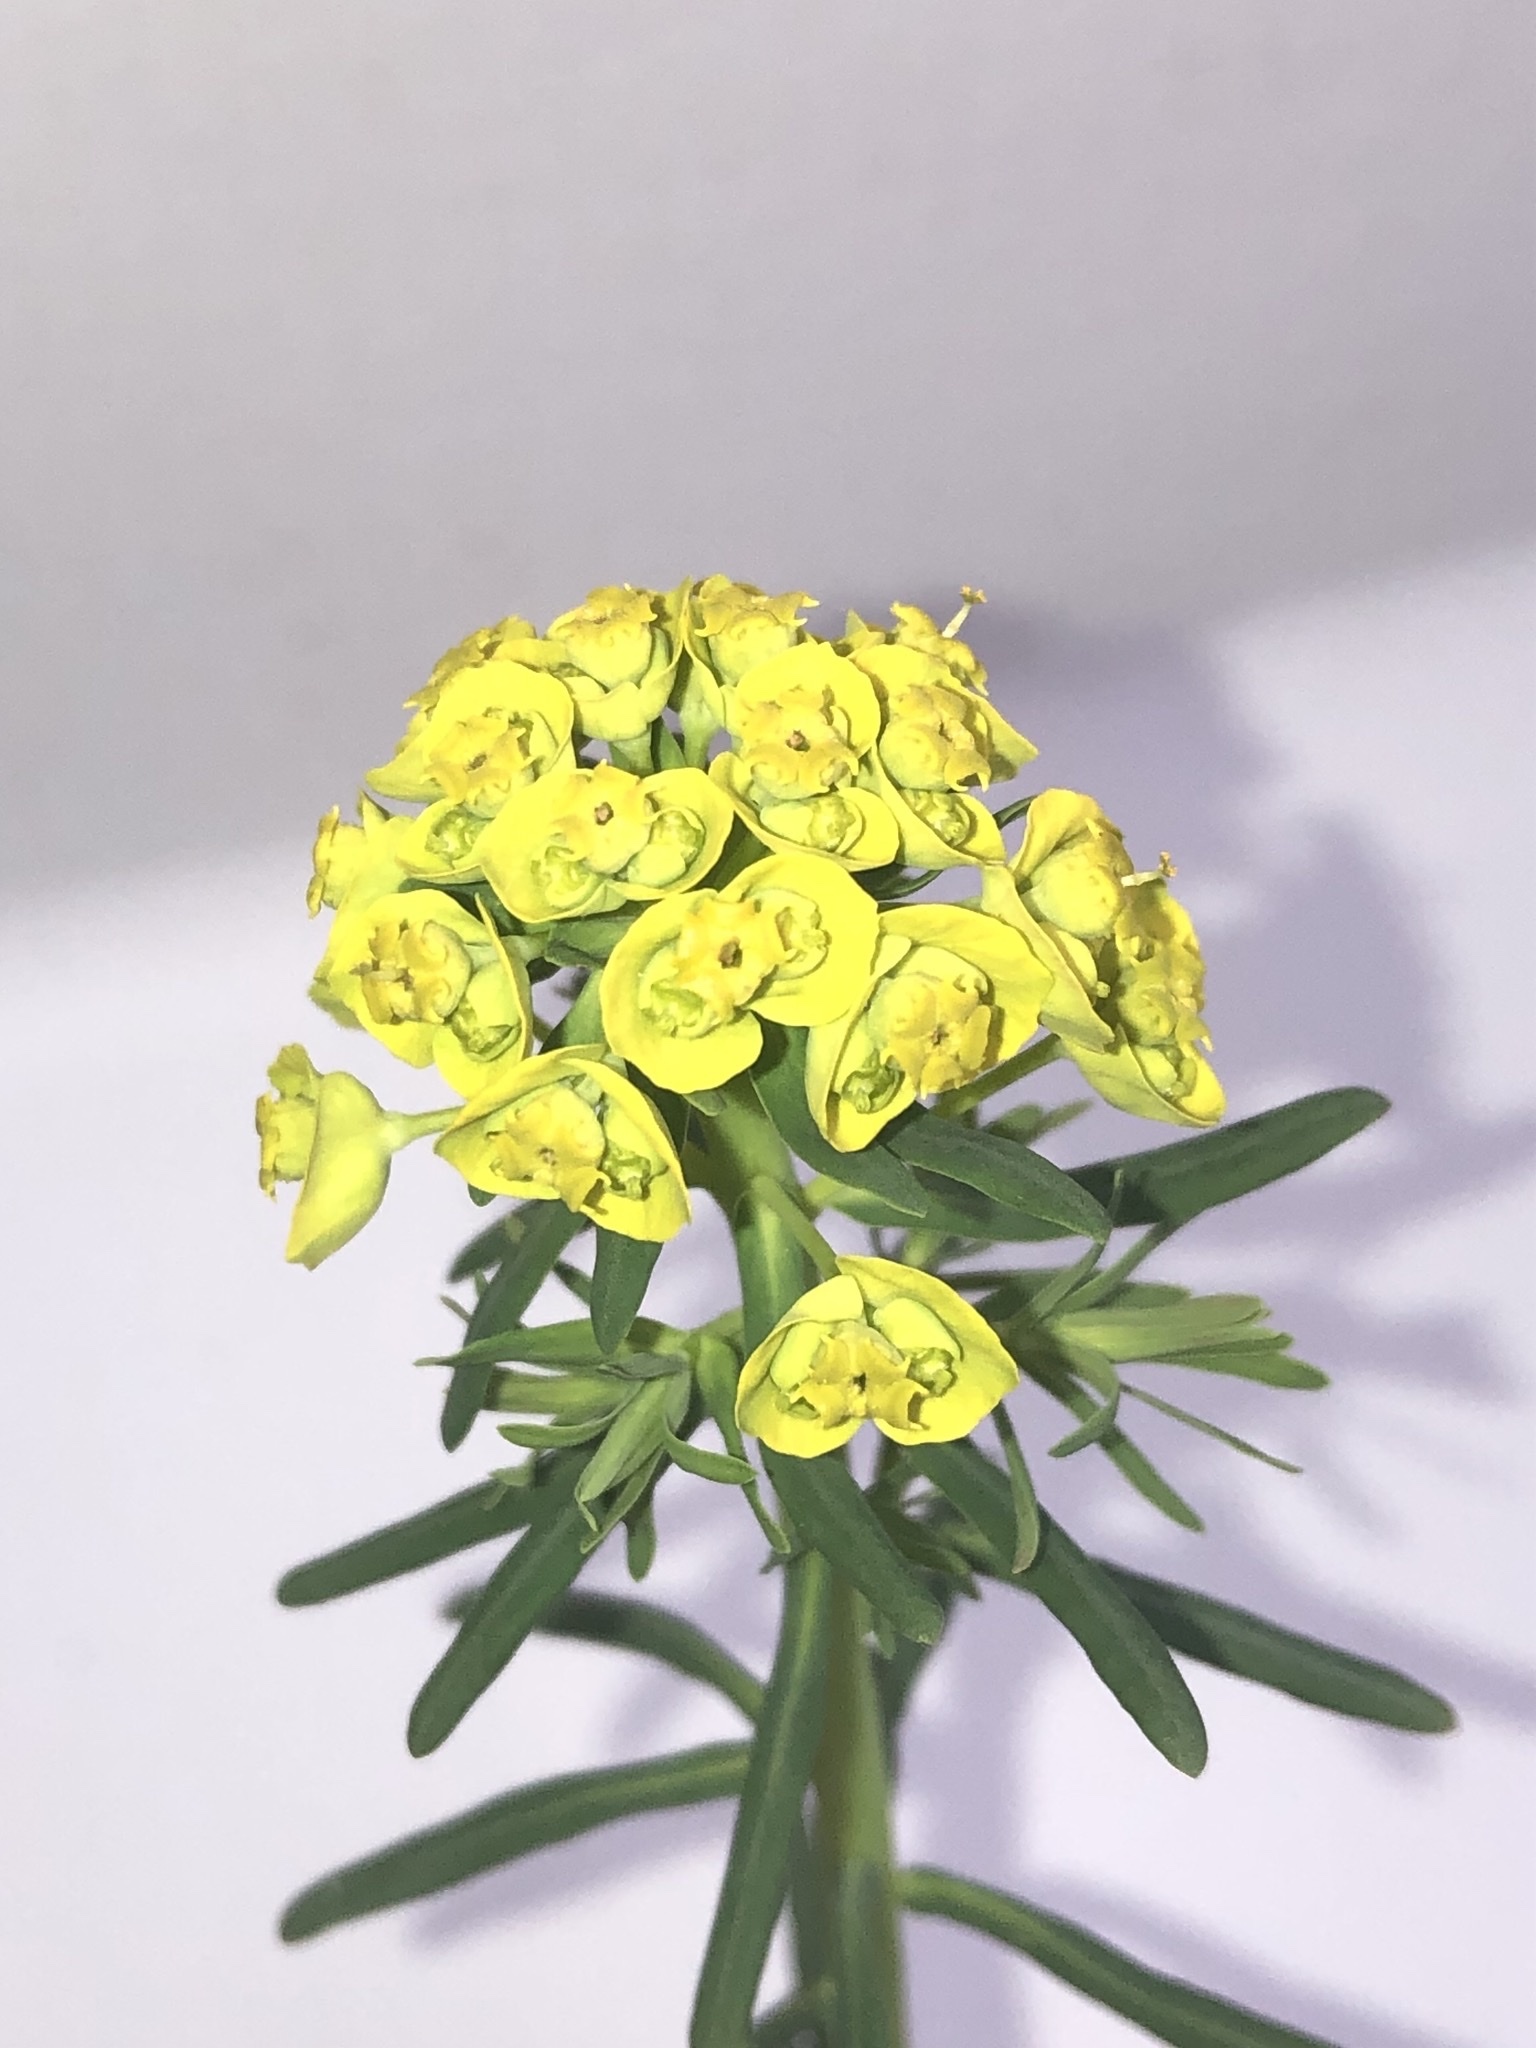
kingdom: Plantae
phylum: Tracheophyta
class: Magnoliopsida
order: Malpighiales
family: Euphorbiaceae
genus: Euphorbia
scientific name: Euphorbia cyparissias
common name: Cypress spurge
